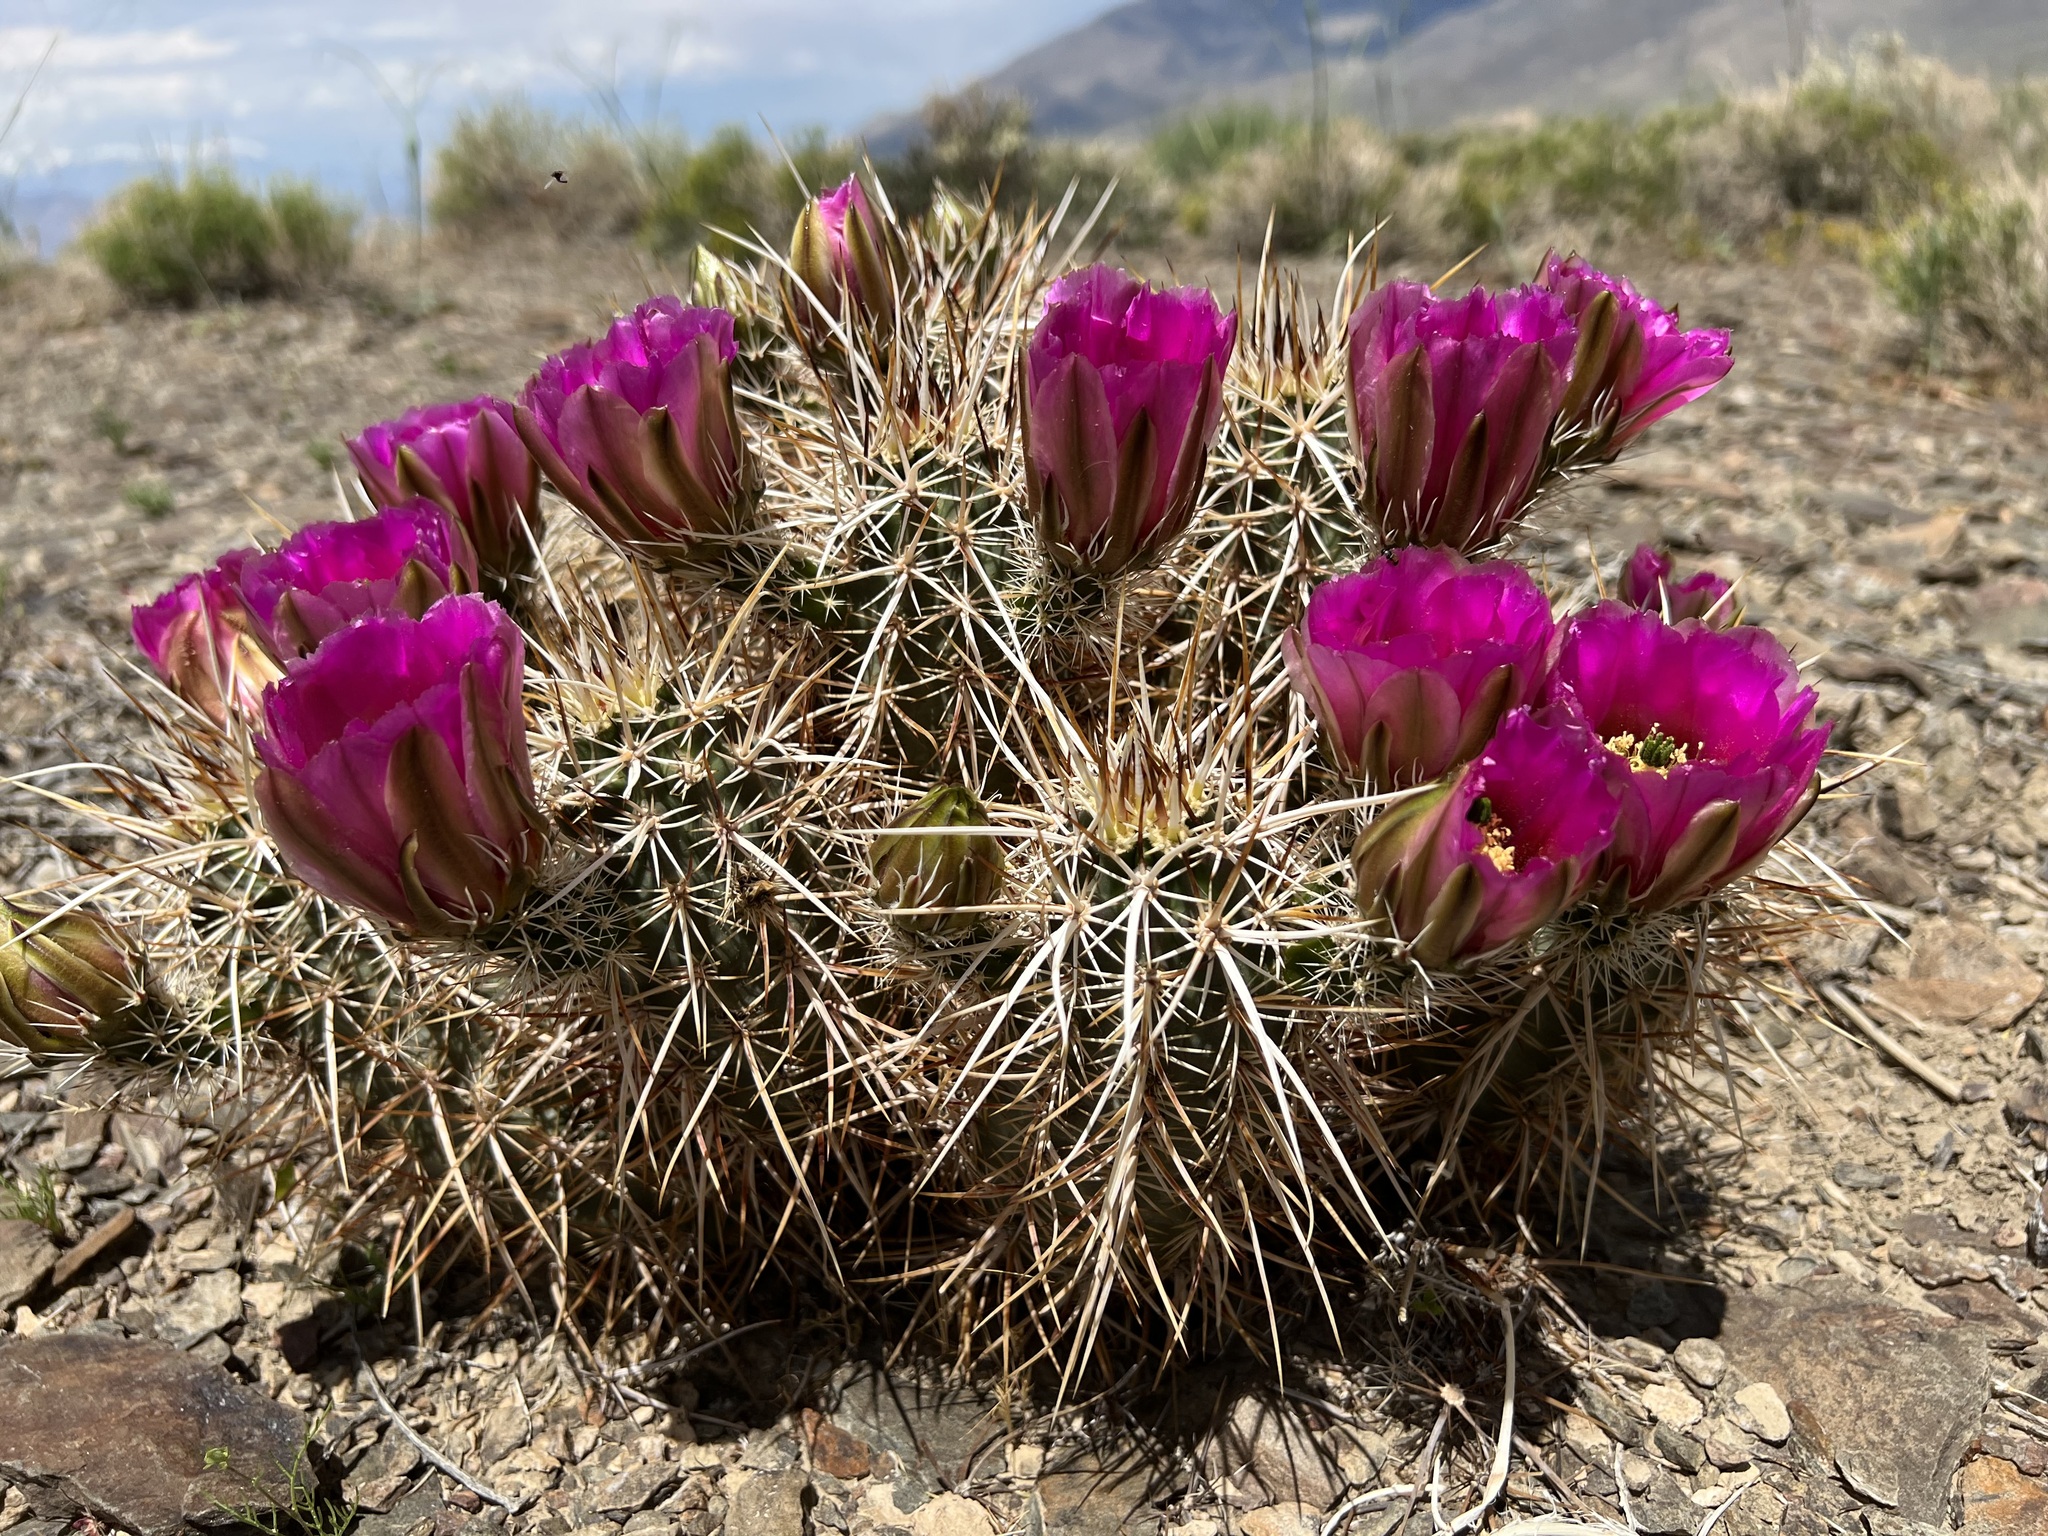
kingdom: Plantae
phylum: Tracheophyta
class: Magnoliopsida
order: Caryophyllales
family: Cactaceae
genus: Echinocereus
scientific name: Echinocereus engelmannii
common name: Engelmann's hedgehog cactus
